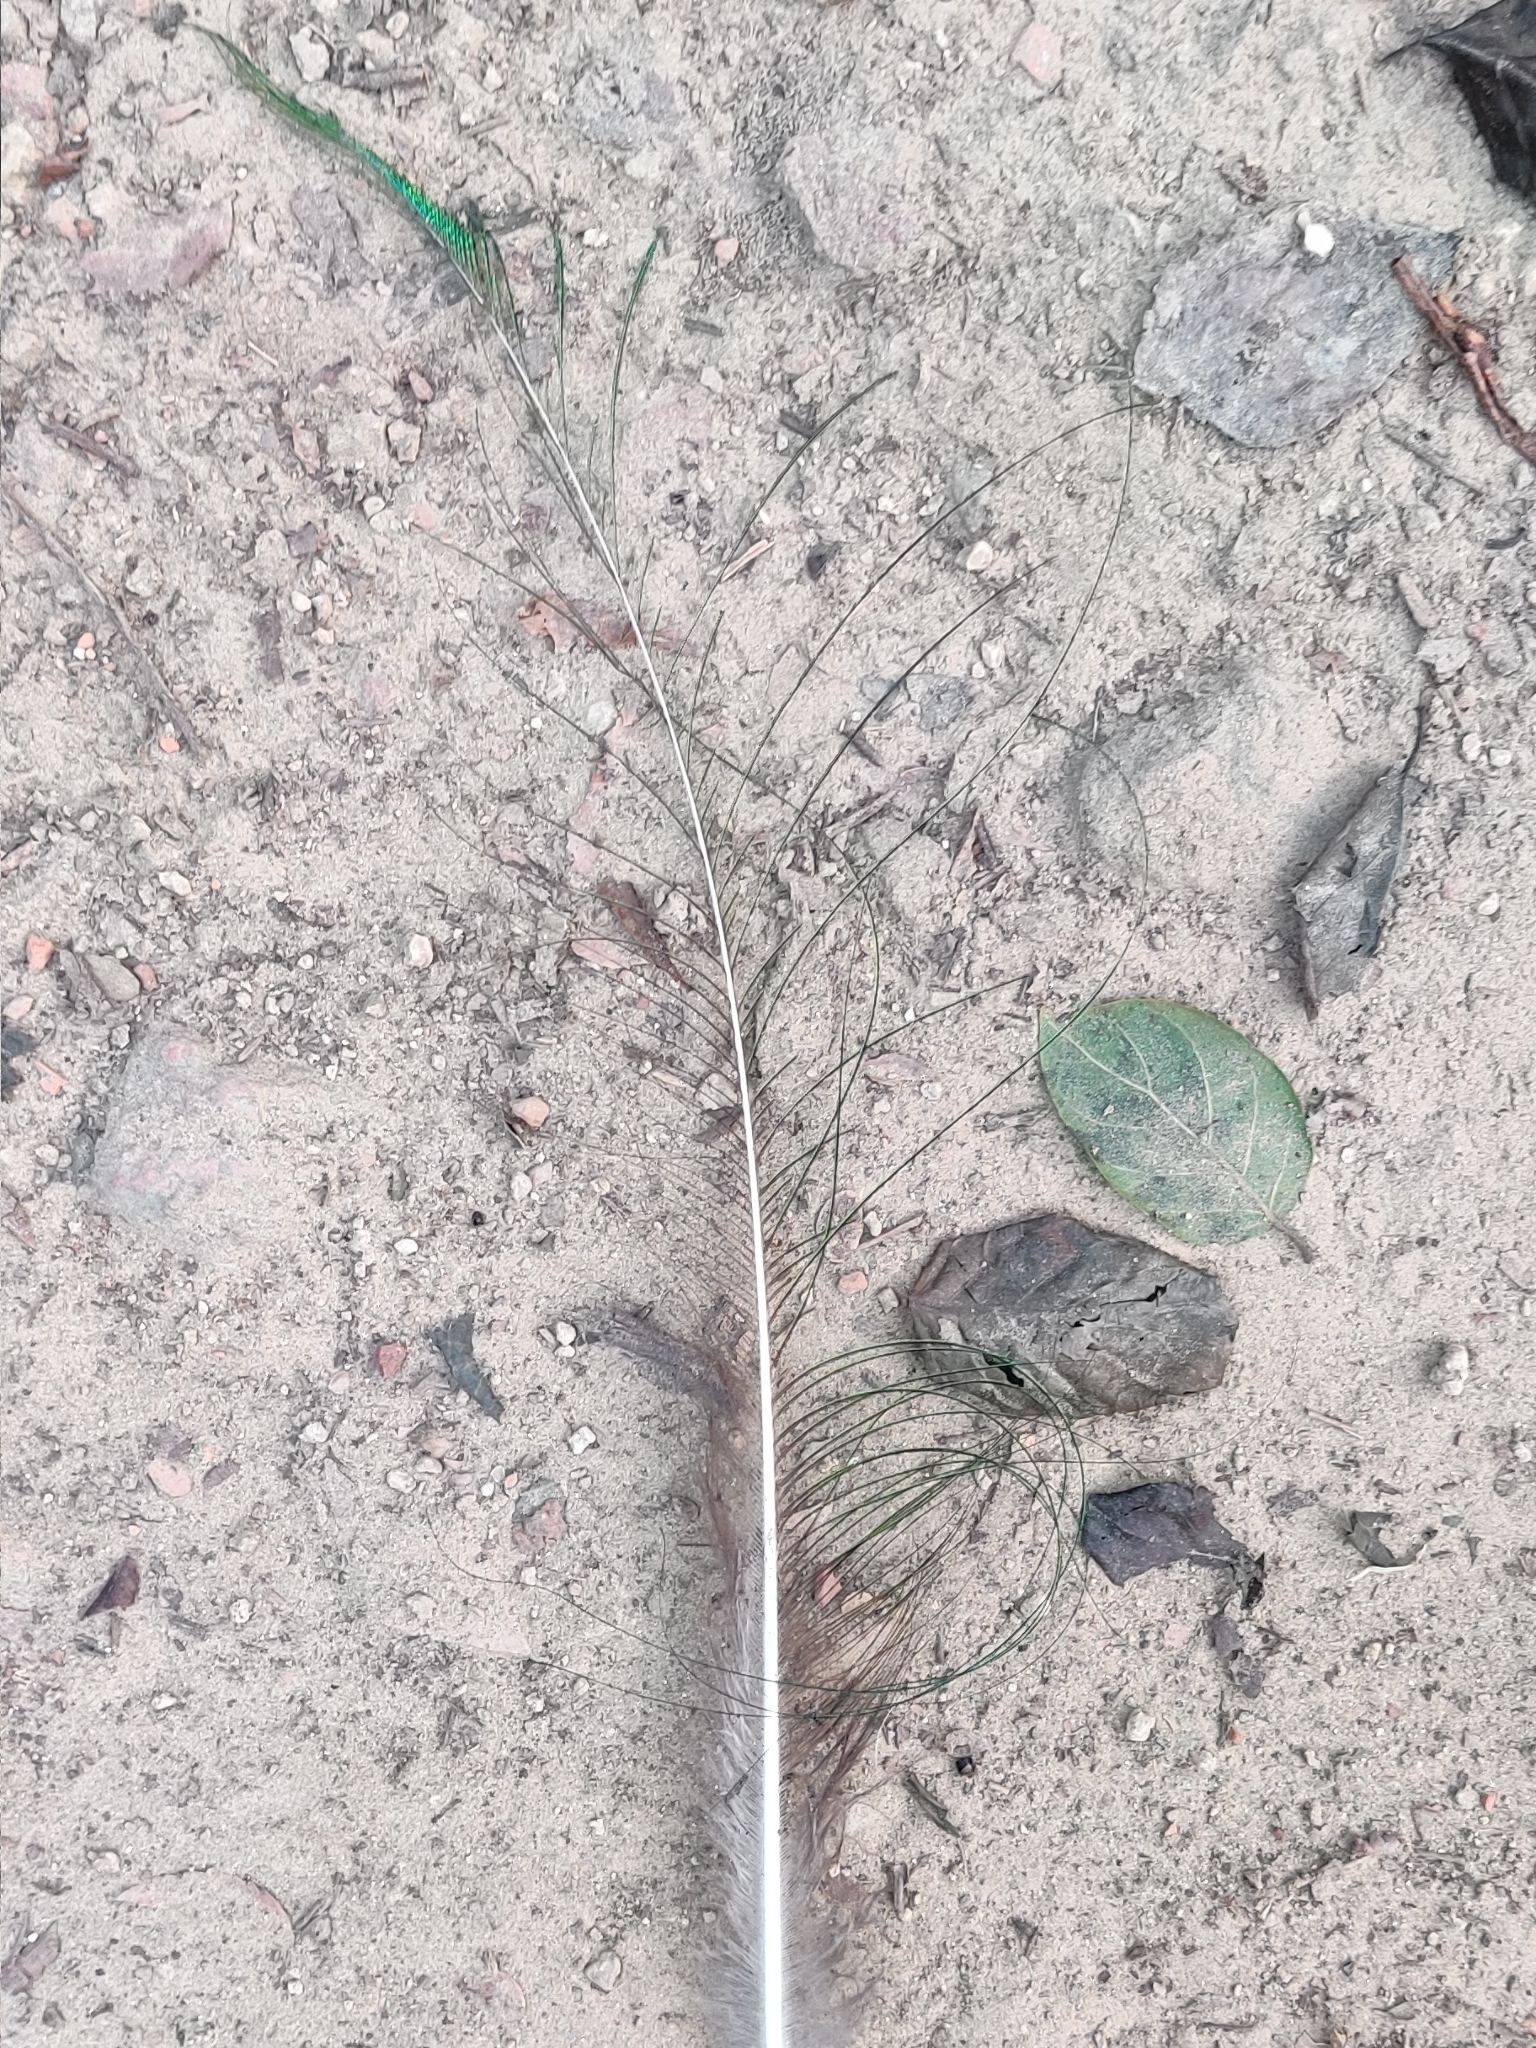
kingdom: Animalia
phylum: Chordata
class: Aves
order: Galliformes
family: Phasianidae
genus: Pavo
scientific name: Pavo cristatus
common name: Indian peafowl
